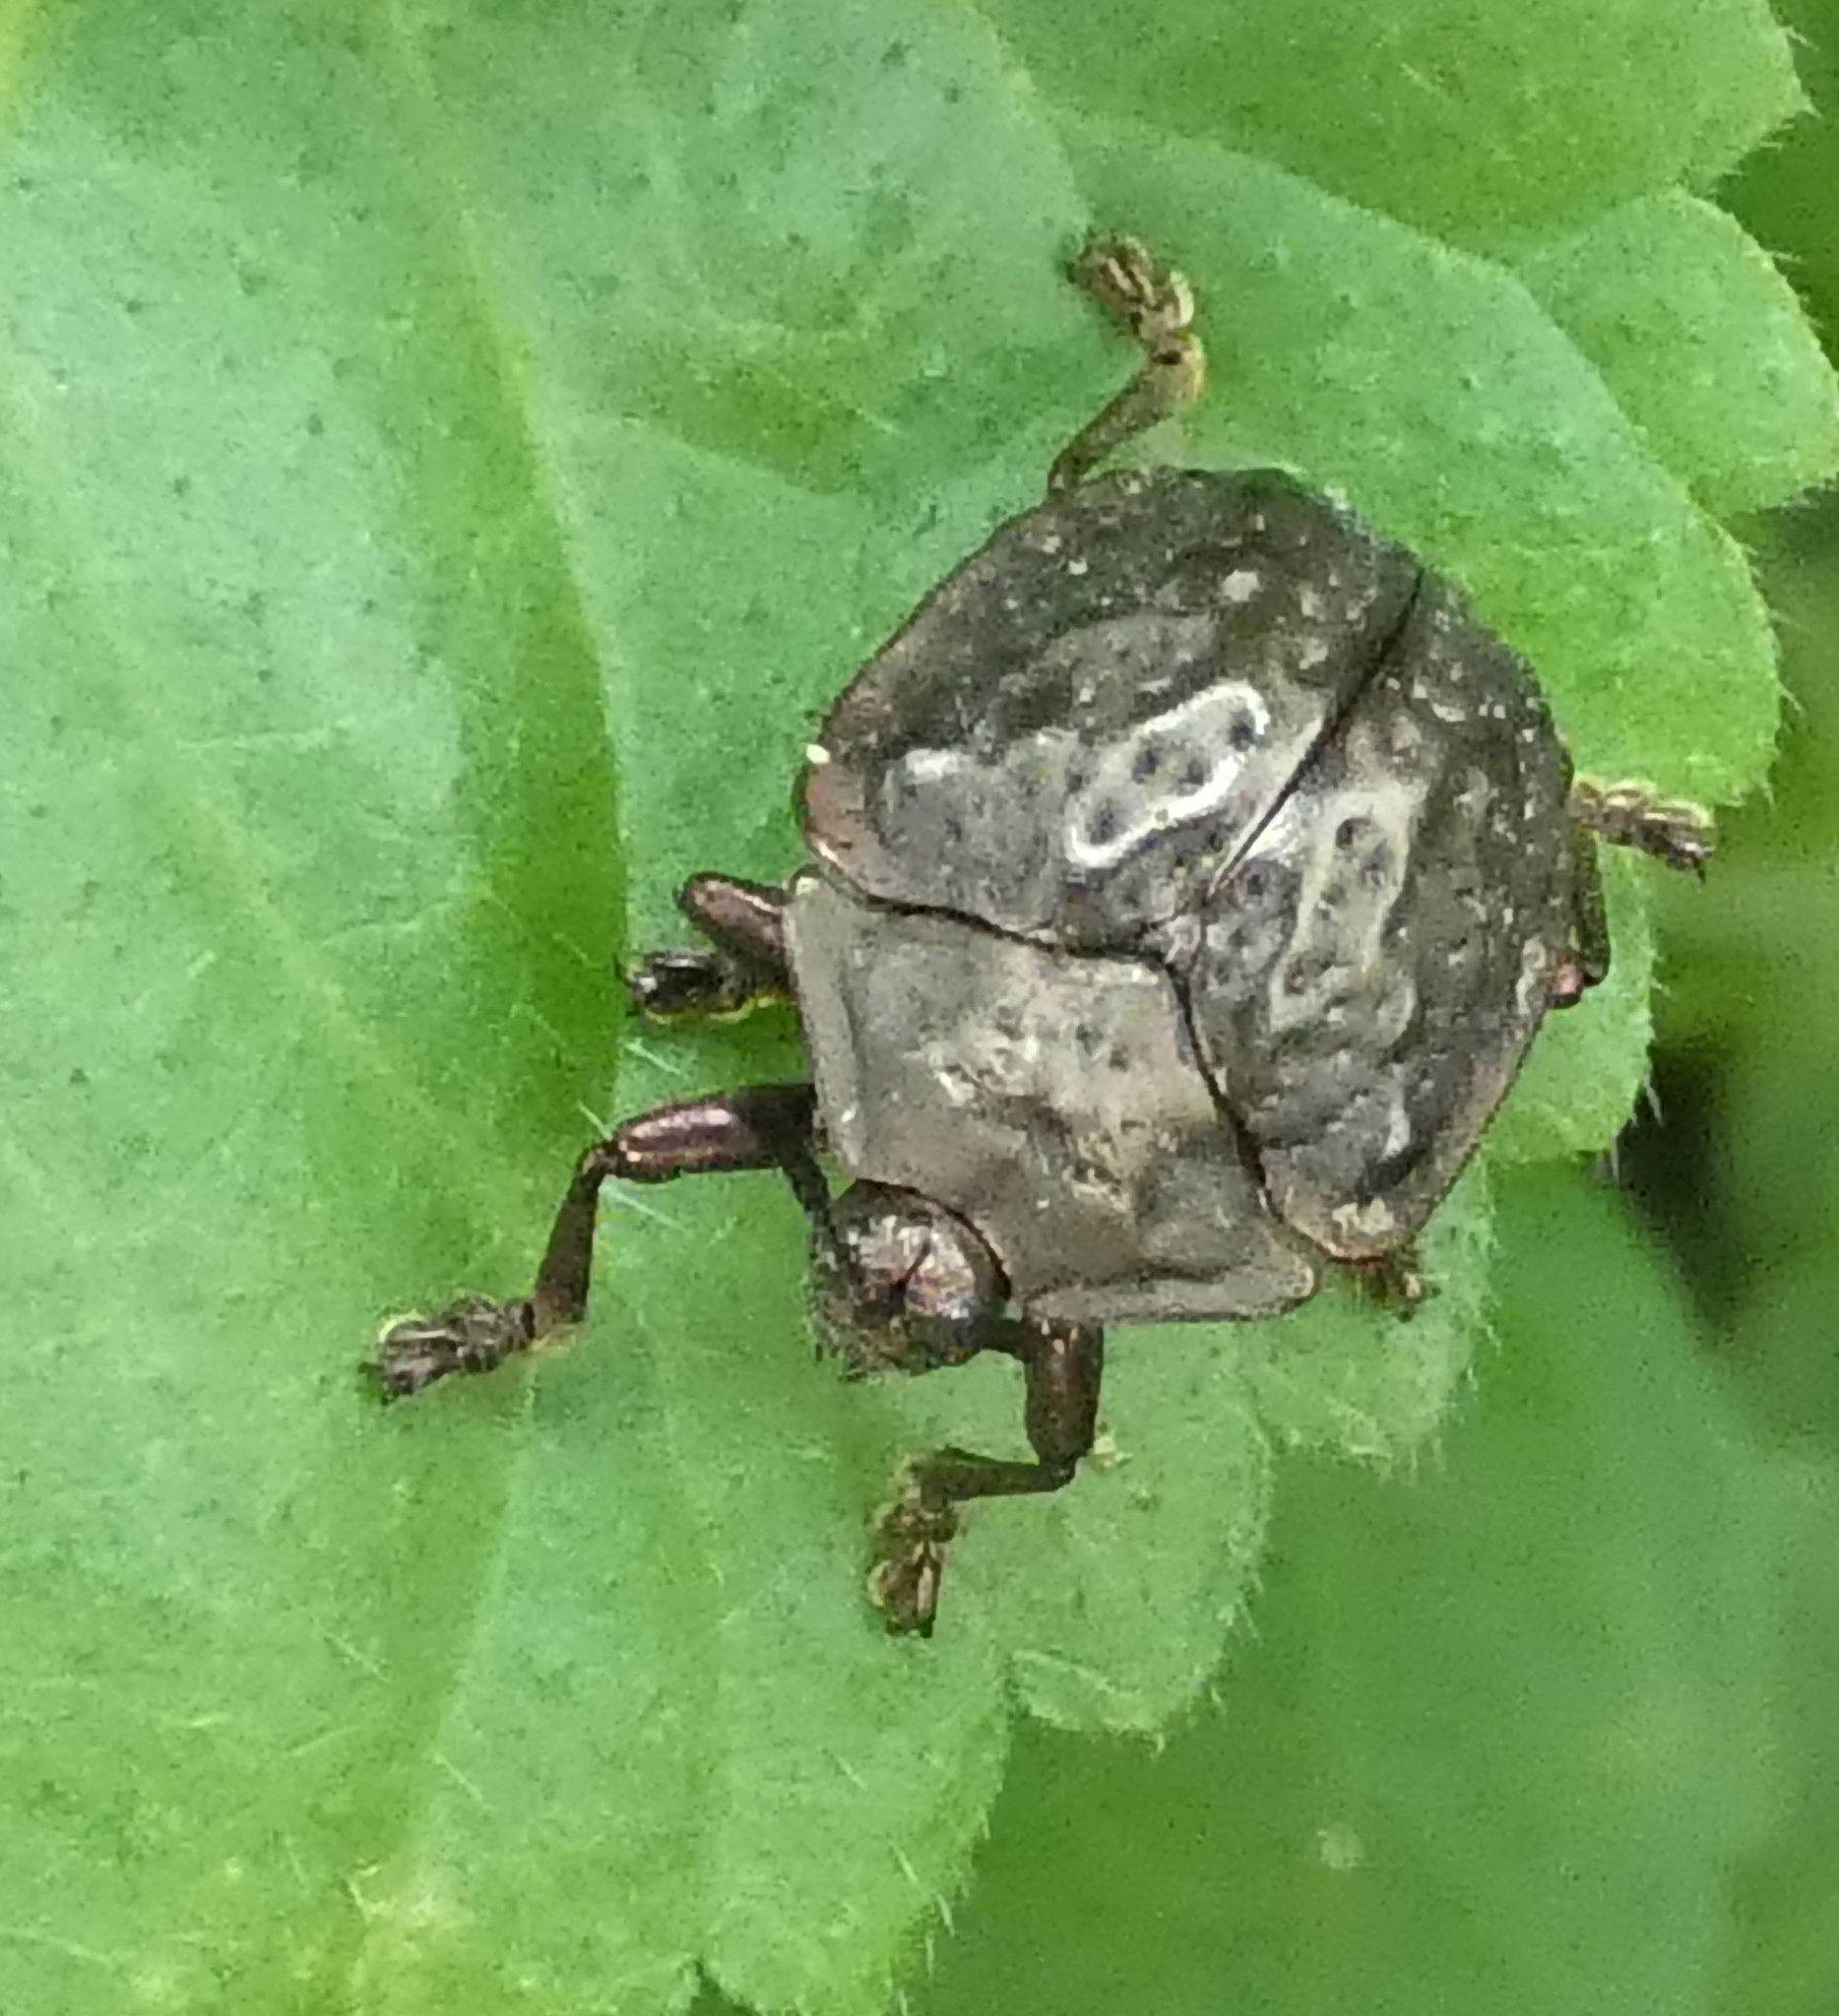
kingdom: Animalia
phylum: Arthropoda
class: Insecta
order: Coleoptera
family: Chrysomelidae
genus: Polychalca
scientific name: Polychalca aerea
